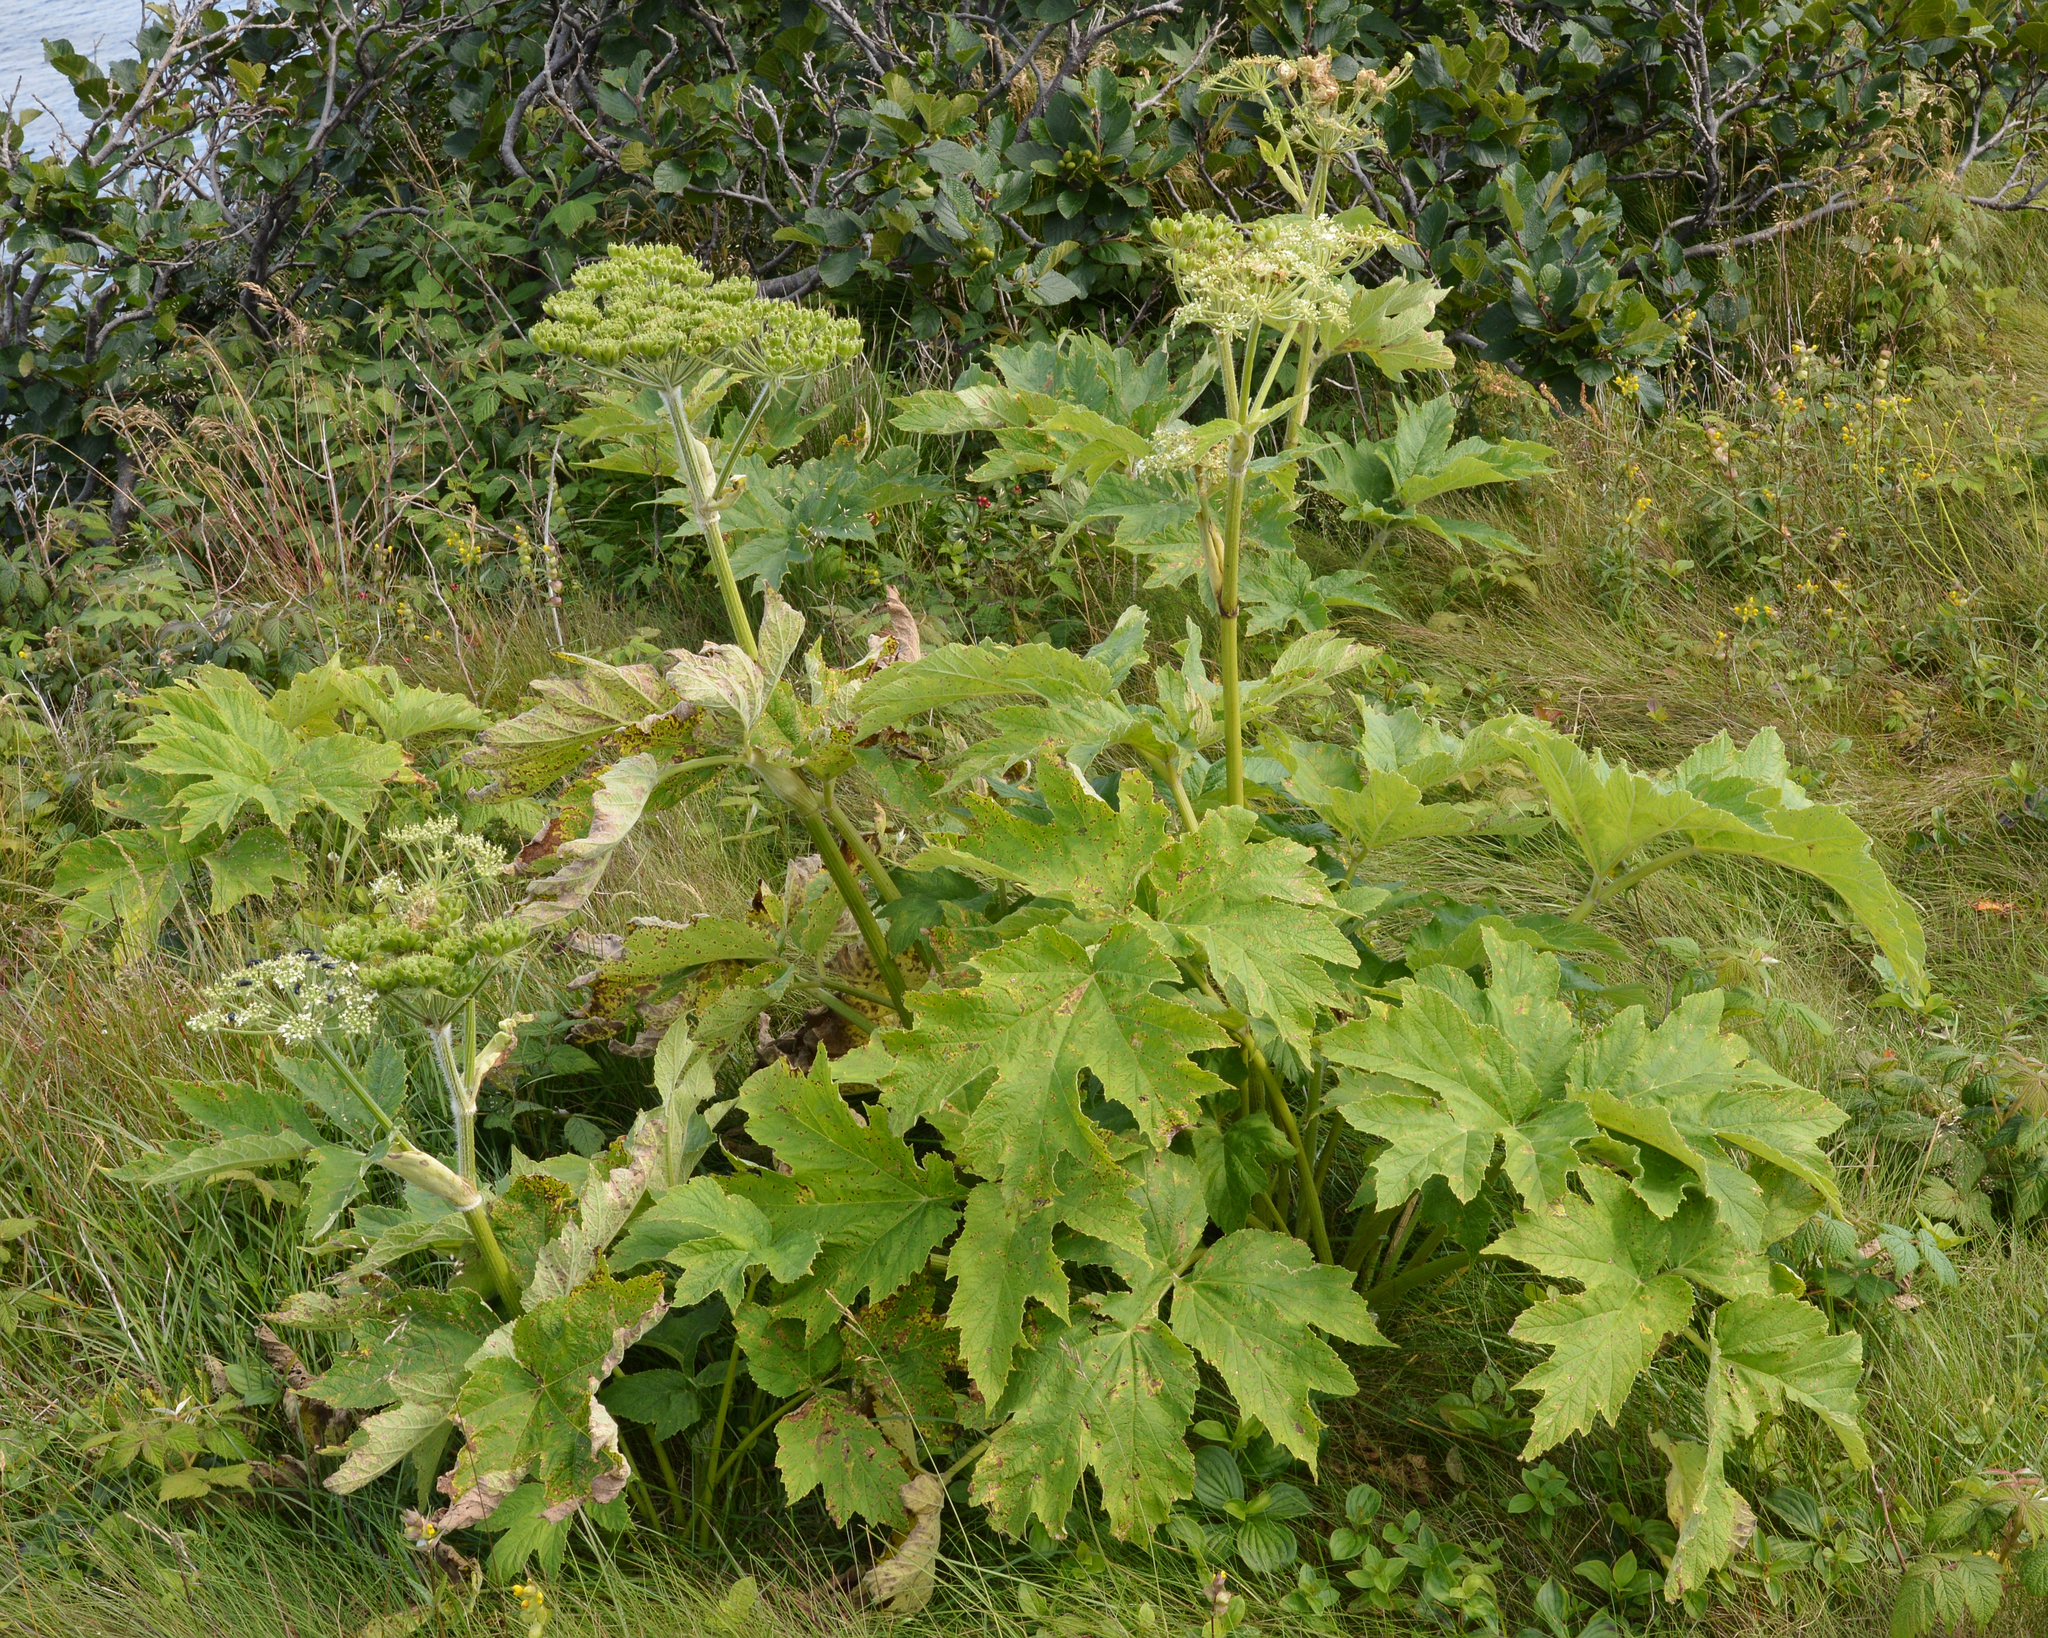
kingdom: Plantae
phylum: Tracheophyta
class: Magnoliopsida
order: Apiales
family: Apiaceae
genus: Heracleum
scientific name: Heracleum maximum
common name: American cow parsnip
